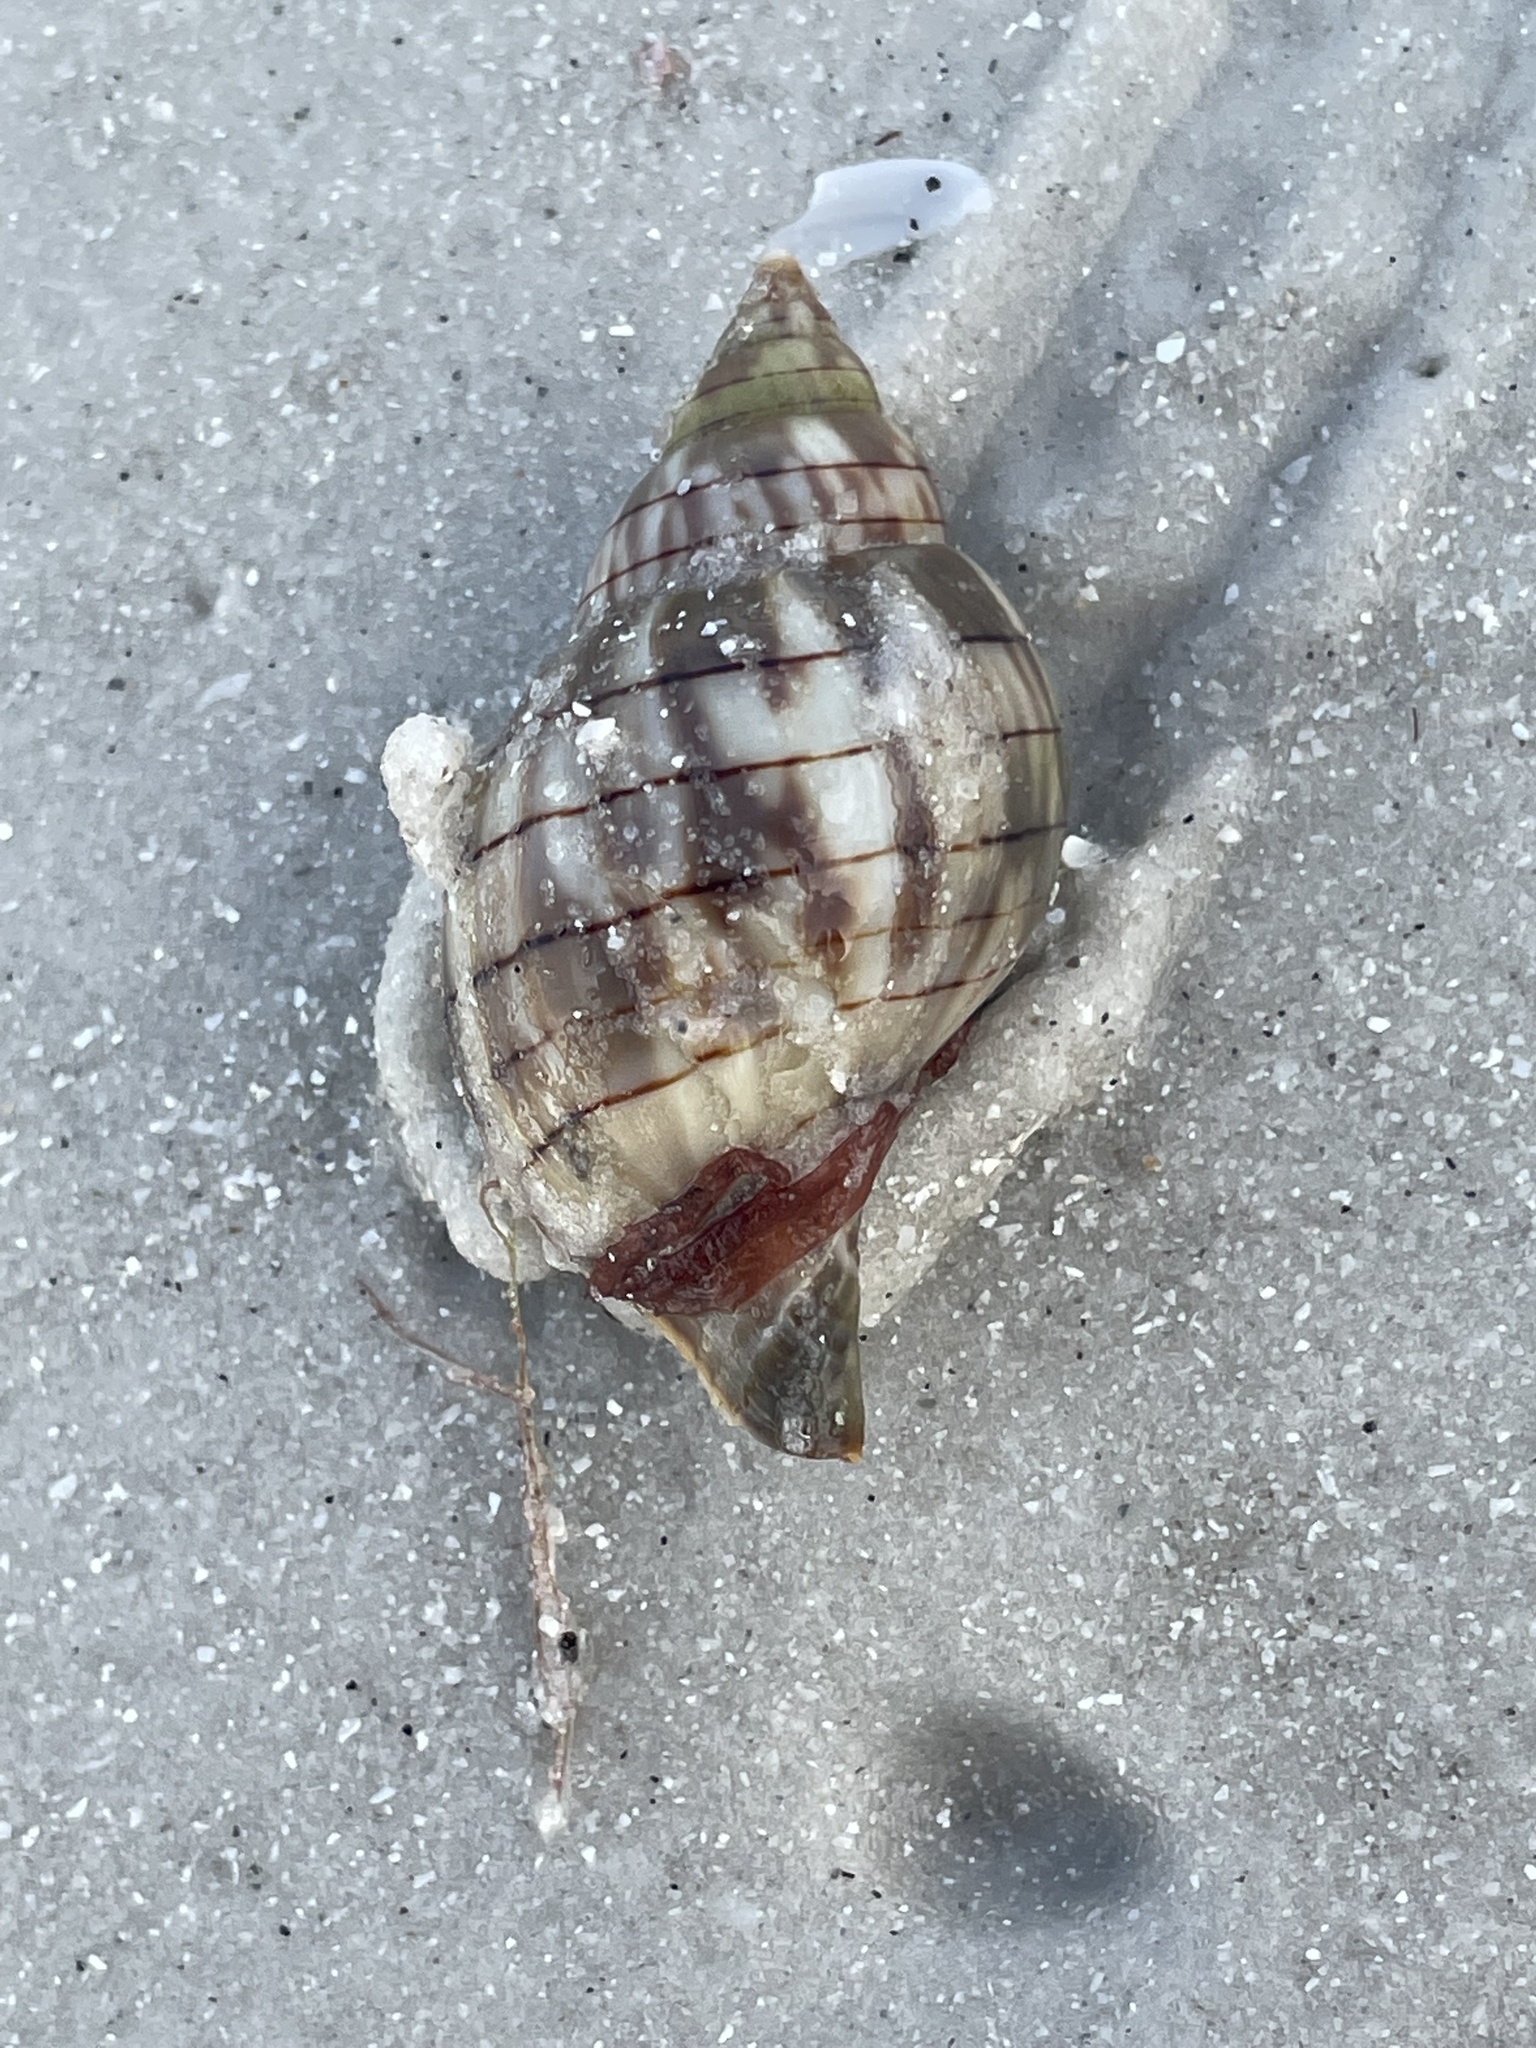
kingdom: Animalia
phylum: Mollusca
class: Gastropoda
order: Neogastropoda
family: Fasciolariidae
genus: Cinctura
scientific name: Cinctura hunteria
